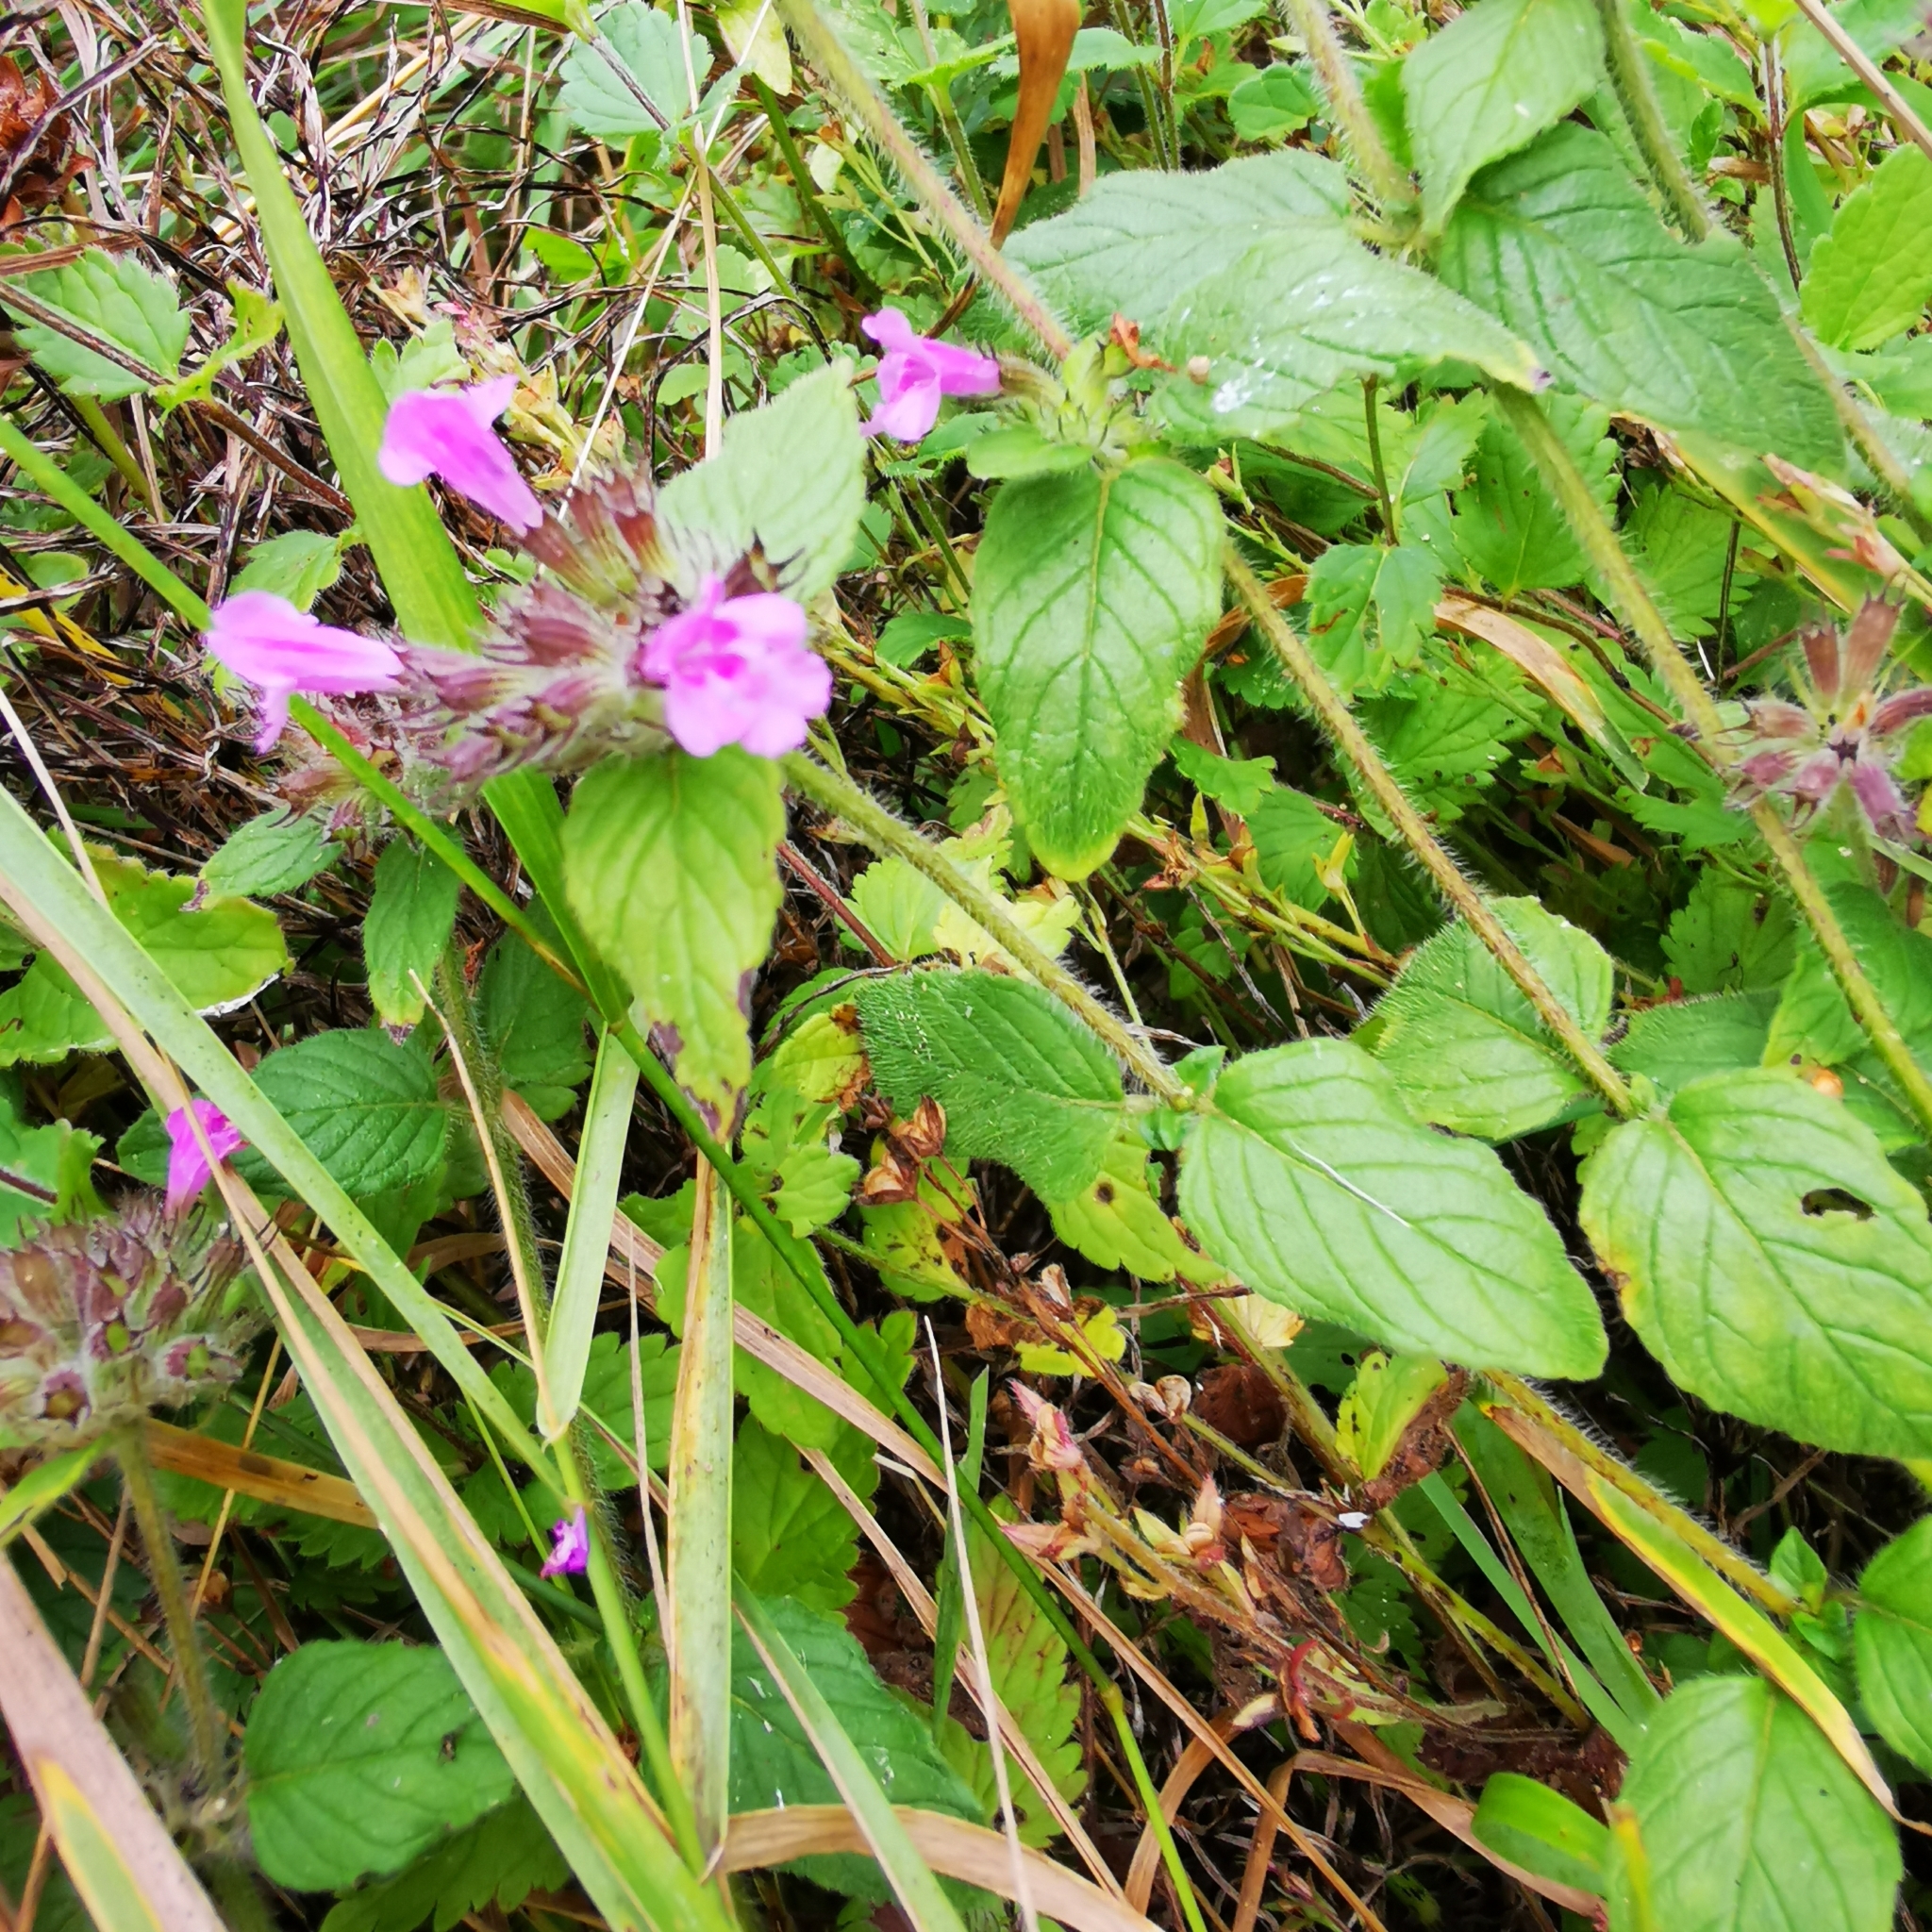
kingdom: Plantae
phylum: Tracheophyta
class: Magnoliopsida
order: Lamiales
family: Lamiaceae
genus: Clinopodium
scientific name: Clinopodium vulgare
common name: Wild basil
